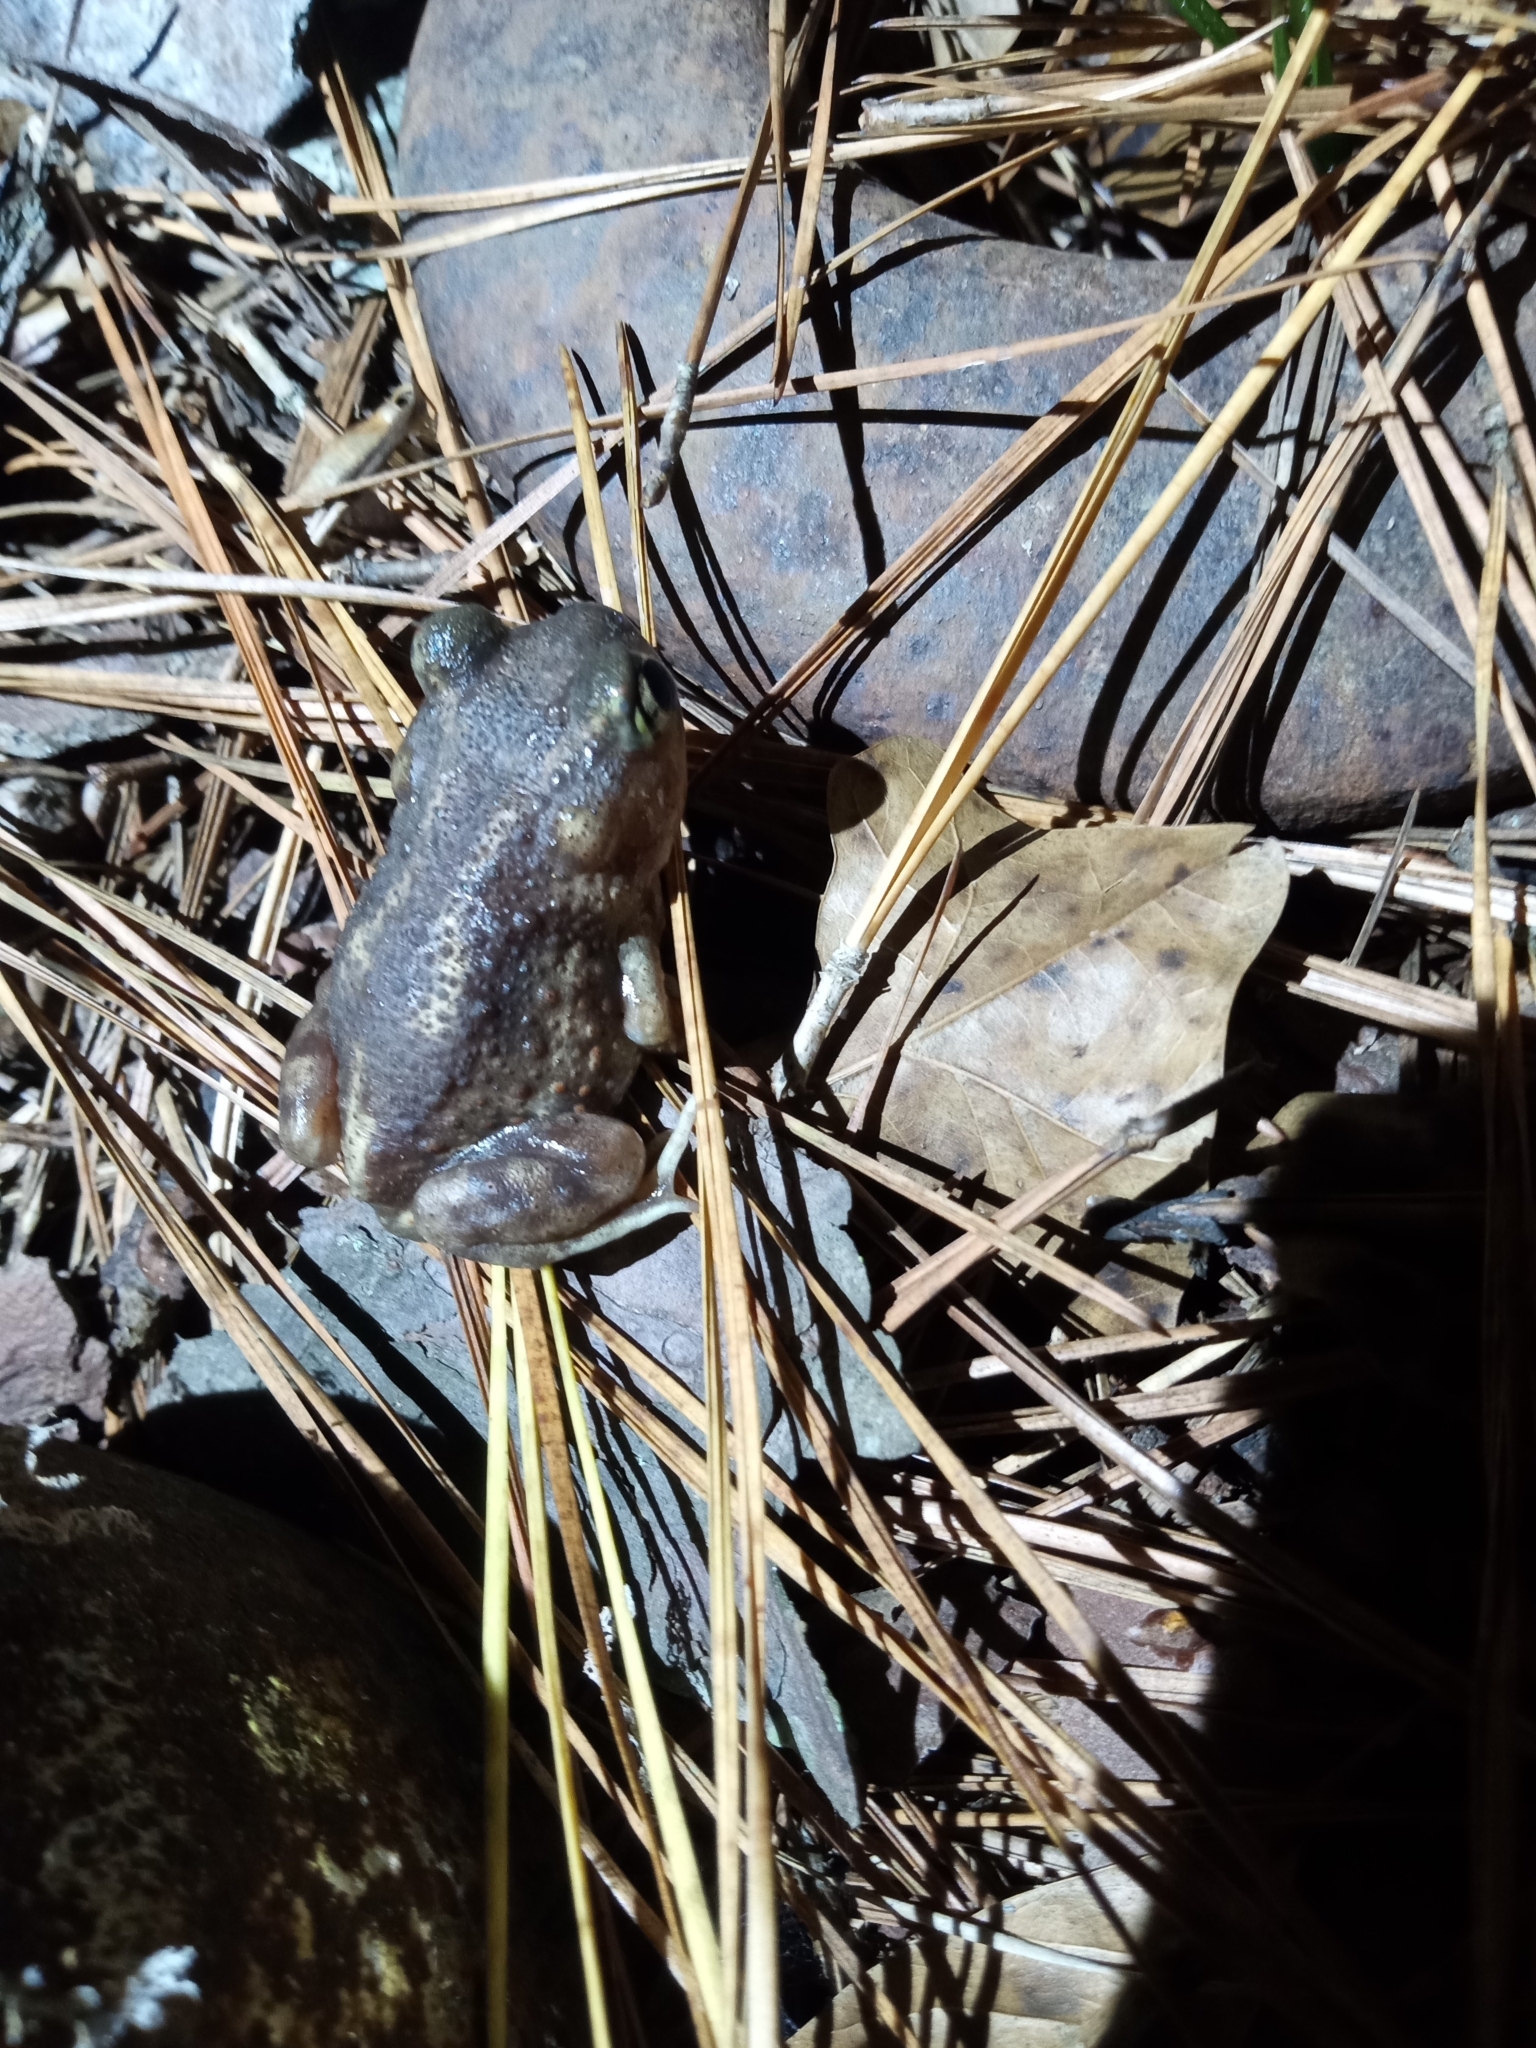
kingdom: Animalia
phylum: Chordata
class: Amphibia
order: Anura
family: Scaphiopodidae
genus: Scaphiopus
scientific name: Scaphiopus holbrookii
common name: Eastern spadefoot toad
